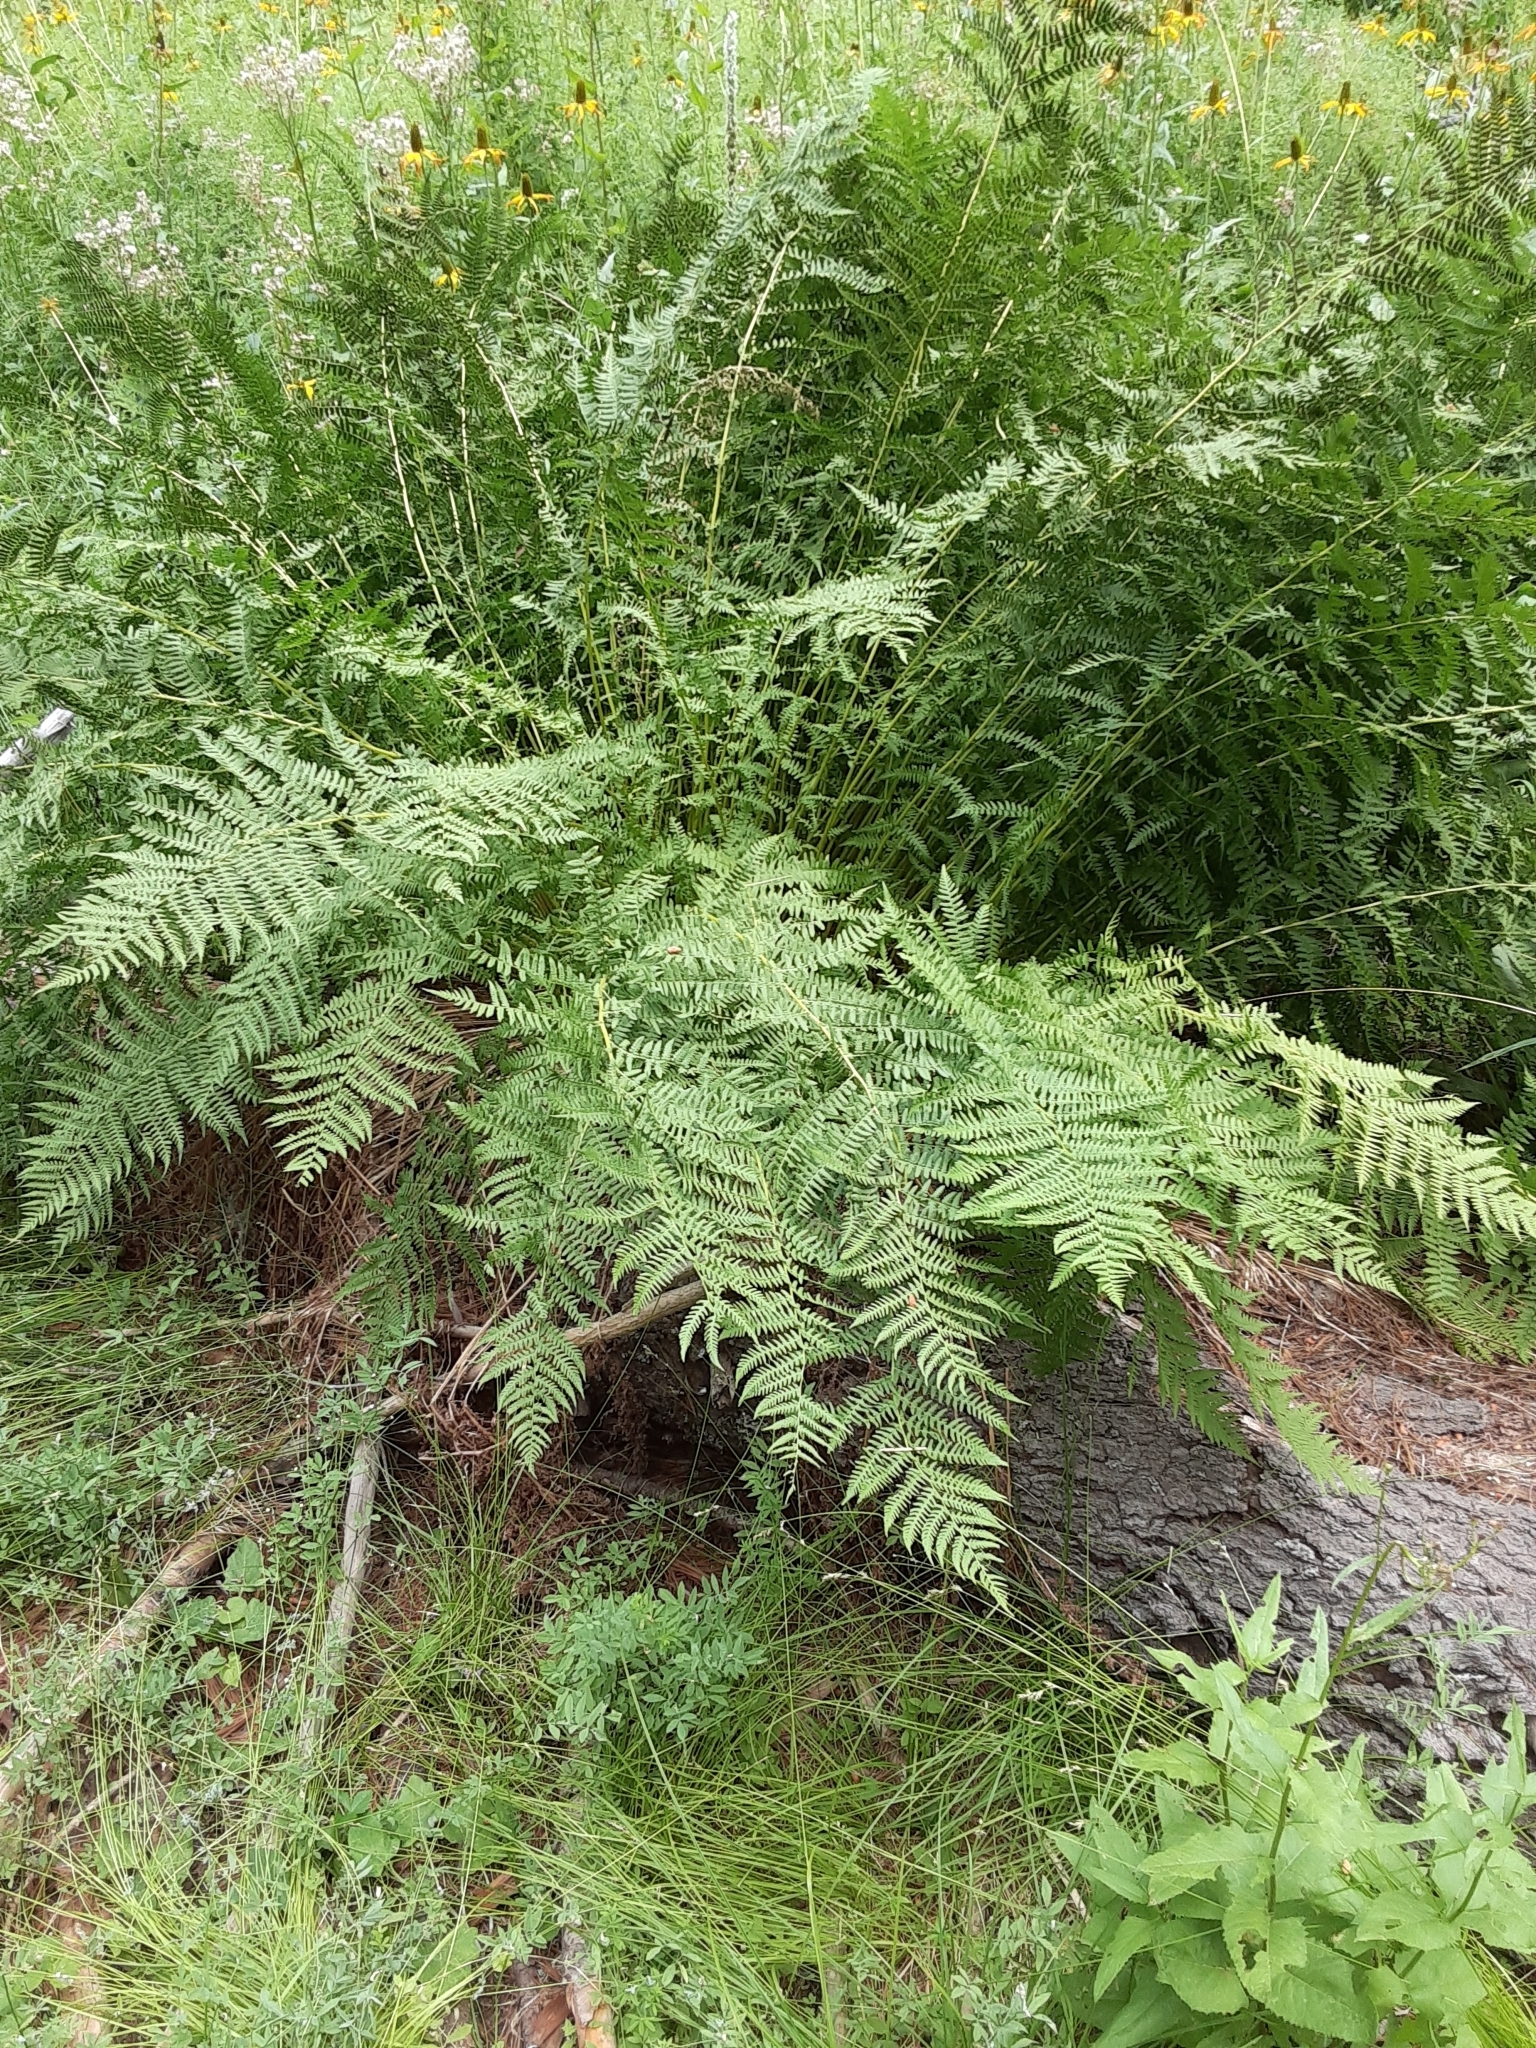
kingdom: Plantae
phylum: Tracheophyta
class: Polypodiopsida
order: Polypodiales
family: Athyriaceae
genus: Athyrium
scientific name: Athyrium cyclosorum
